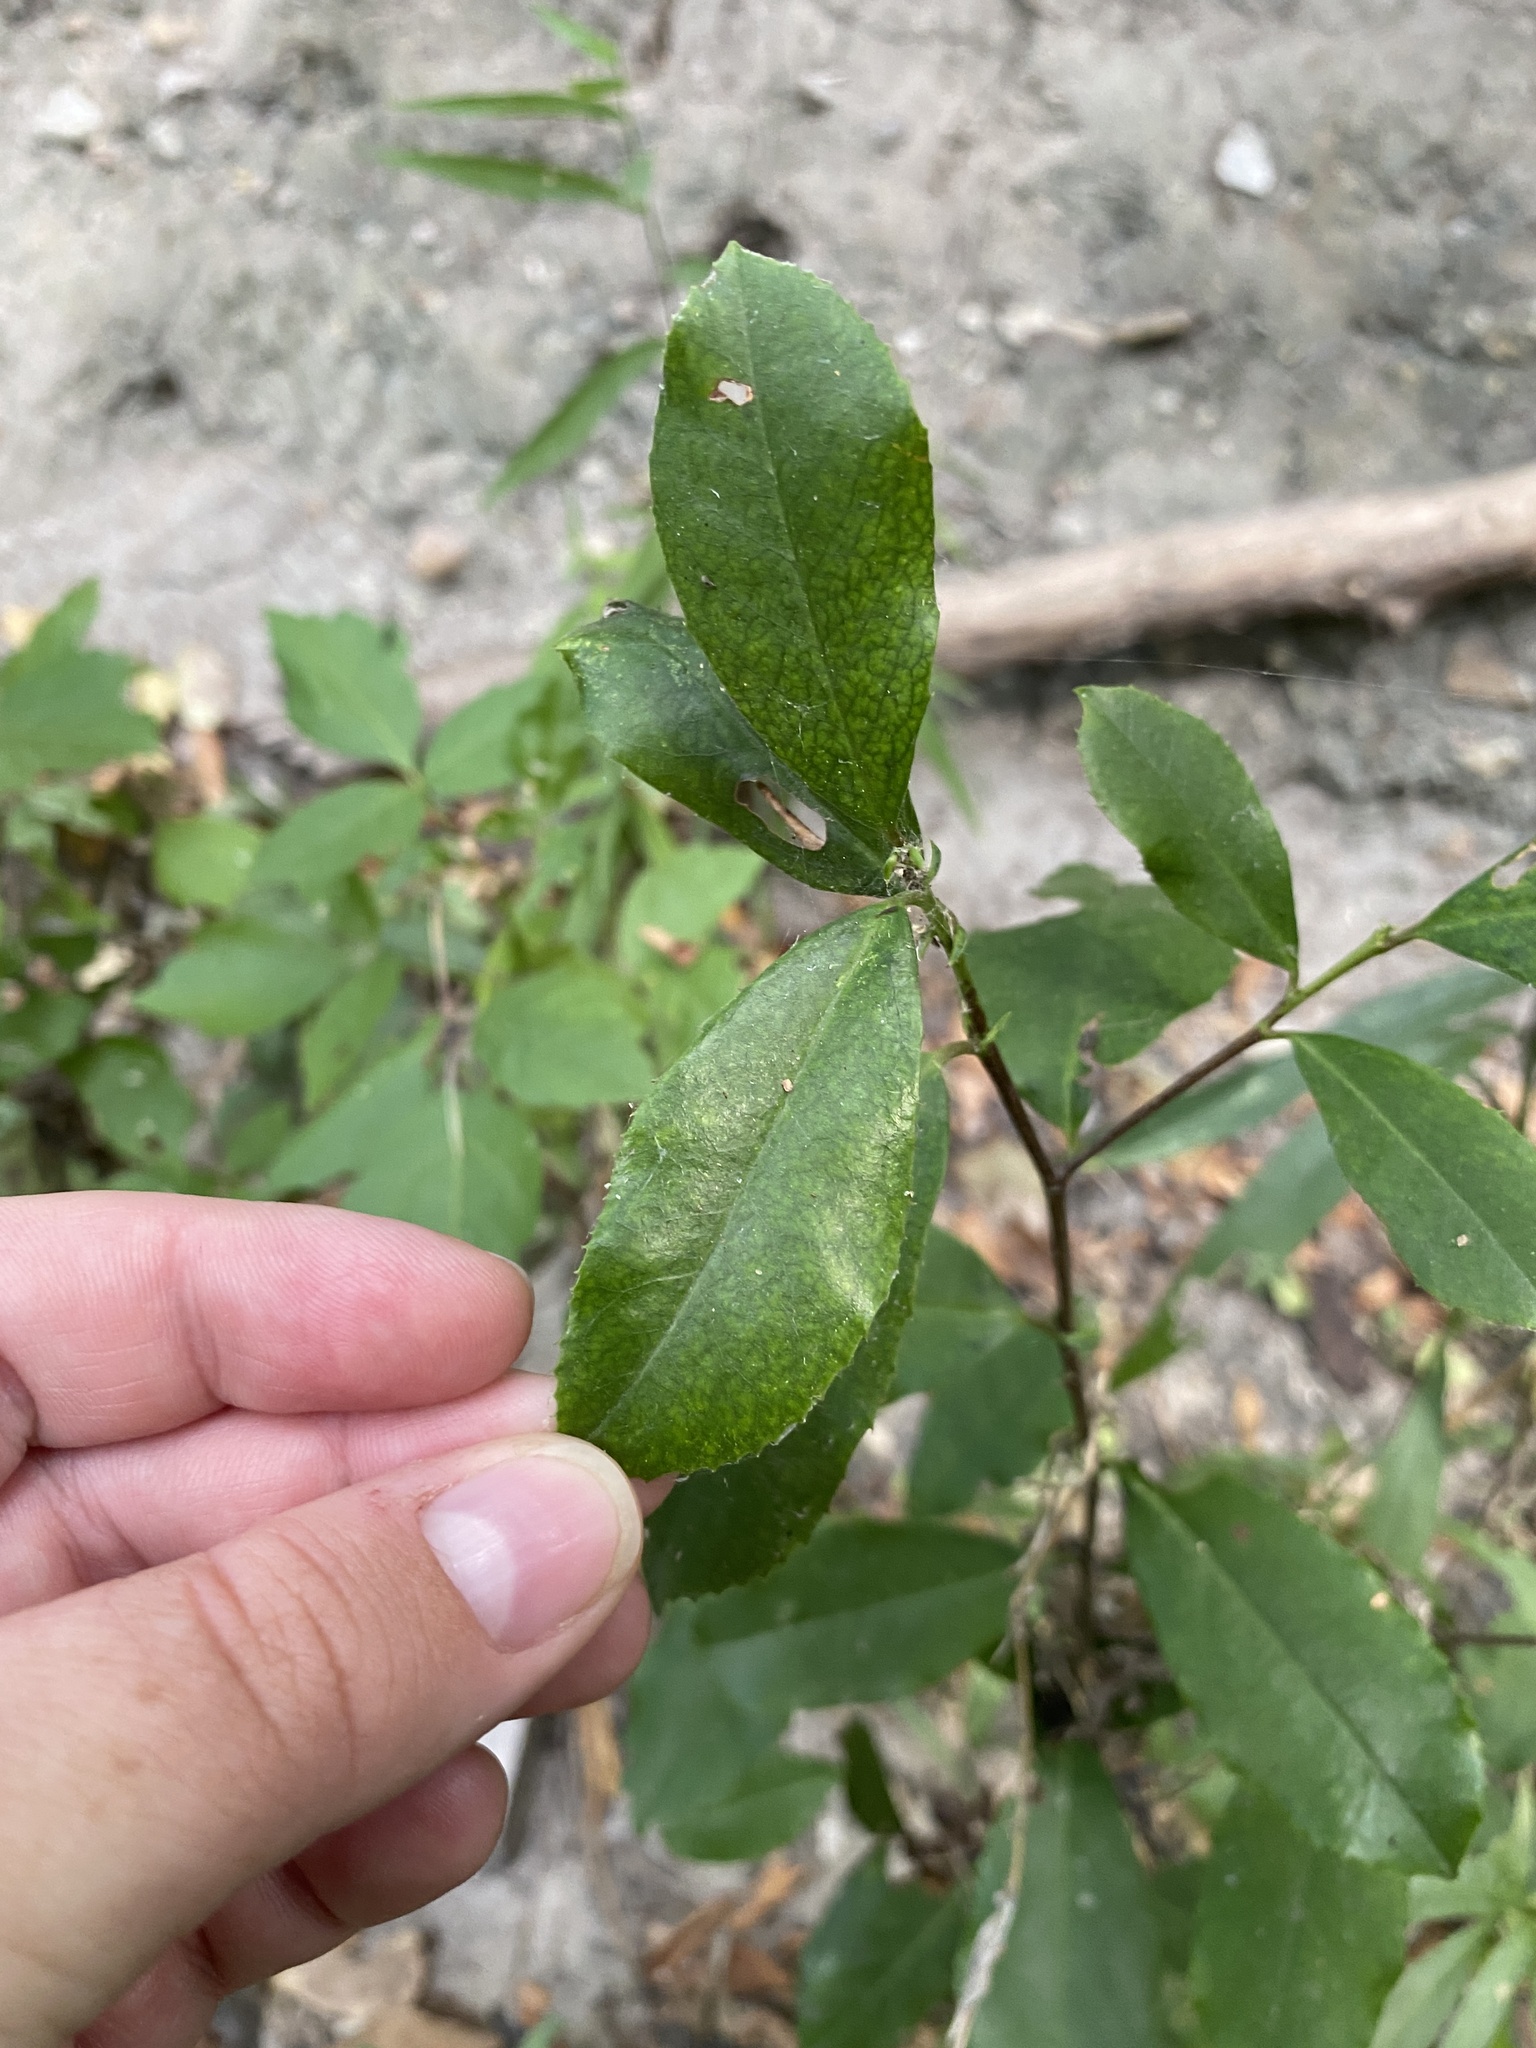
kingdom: Plantae
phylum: Tracheophyta
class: Magnoliopsida
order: Rosales
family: Rosaceae
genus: Prunus
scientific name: Prunus caroliniana
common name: Carolina laurel cherry
